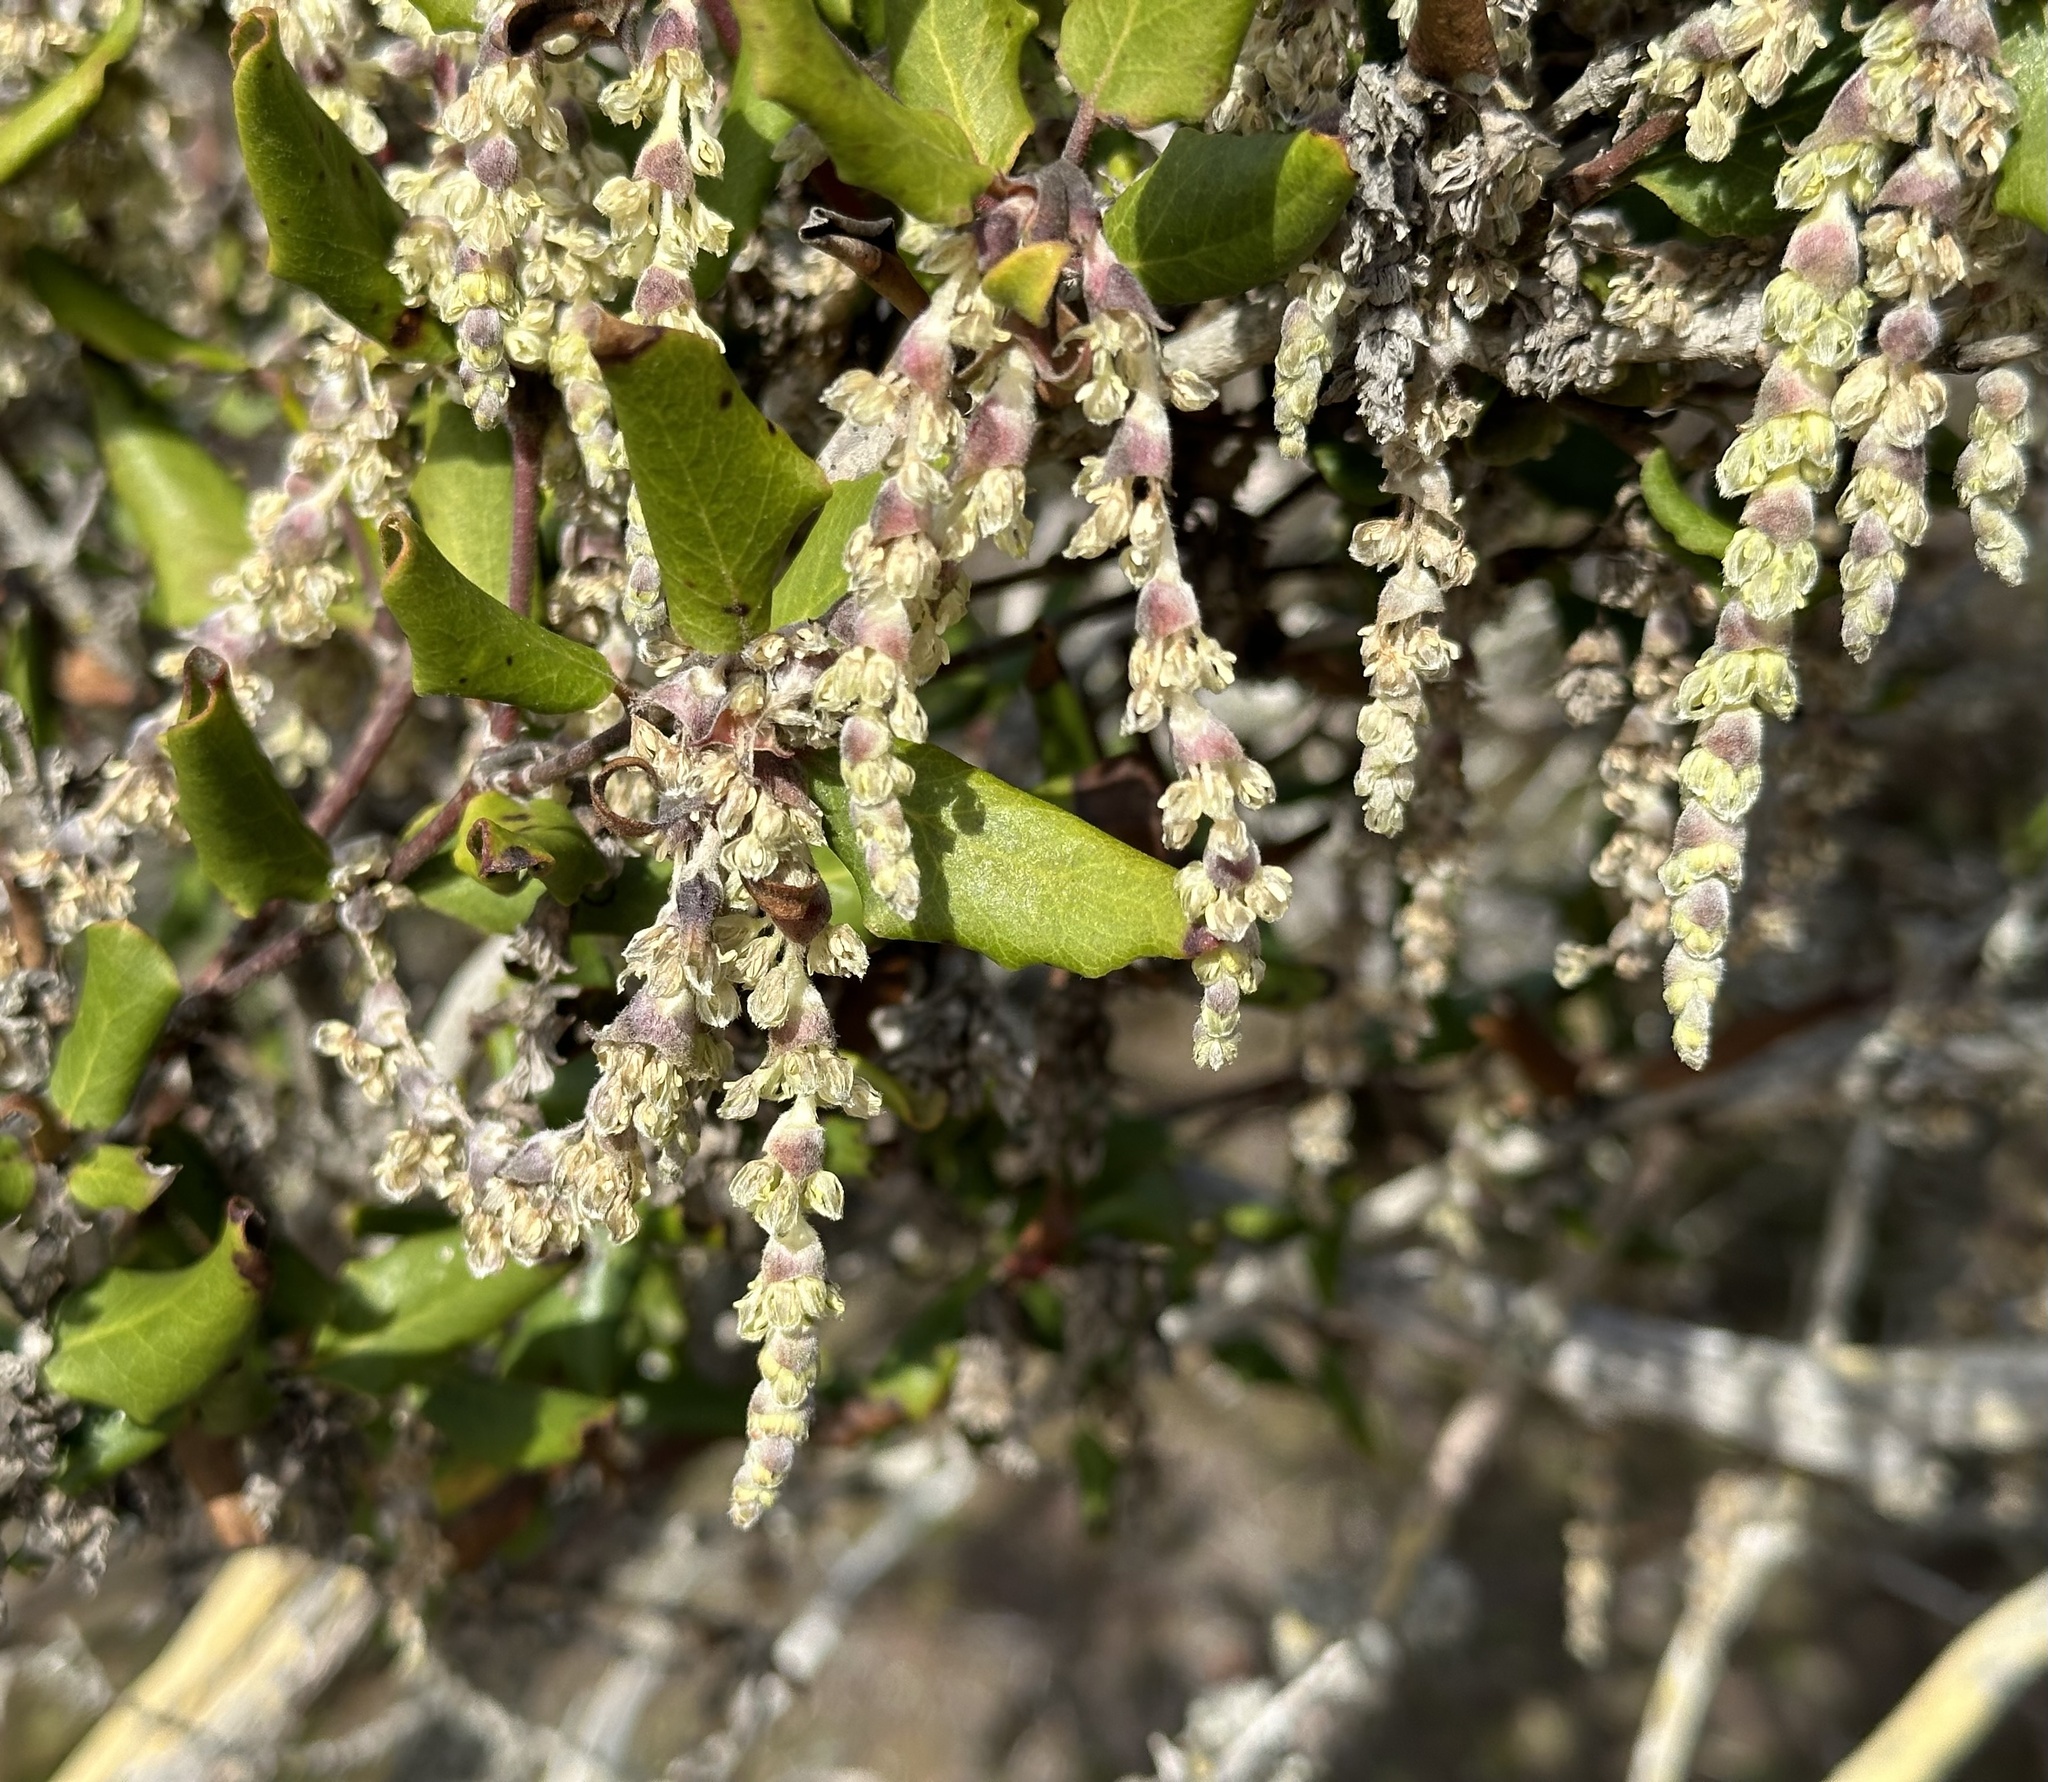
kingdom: Plantae
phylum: Tracheophyta
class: Magnoliopsida
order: Garryales
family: Garryaceae
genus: Garrya
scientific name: Garrya elliptica
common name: Silk-tassel
